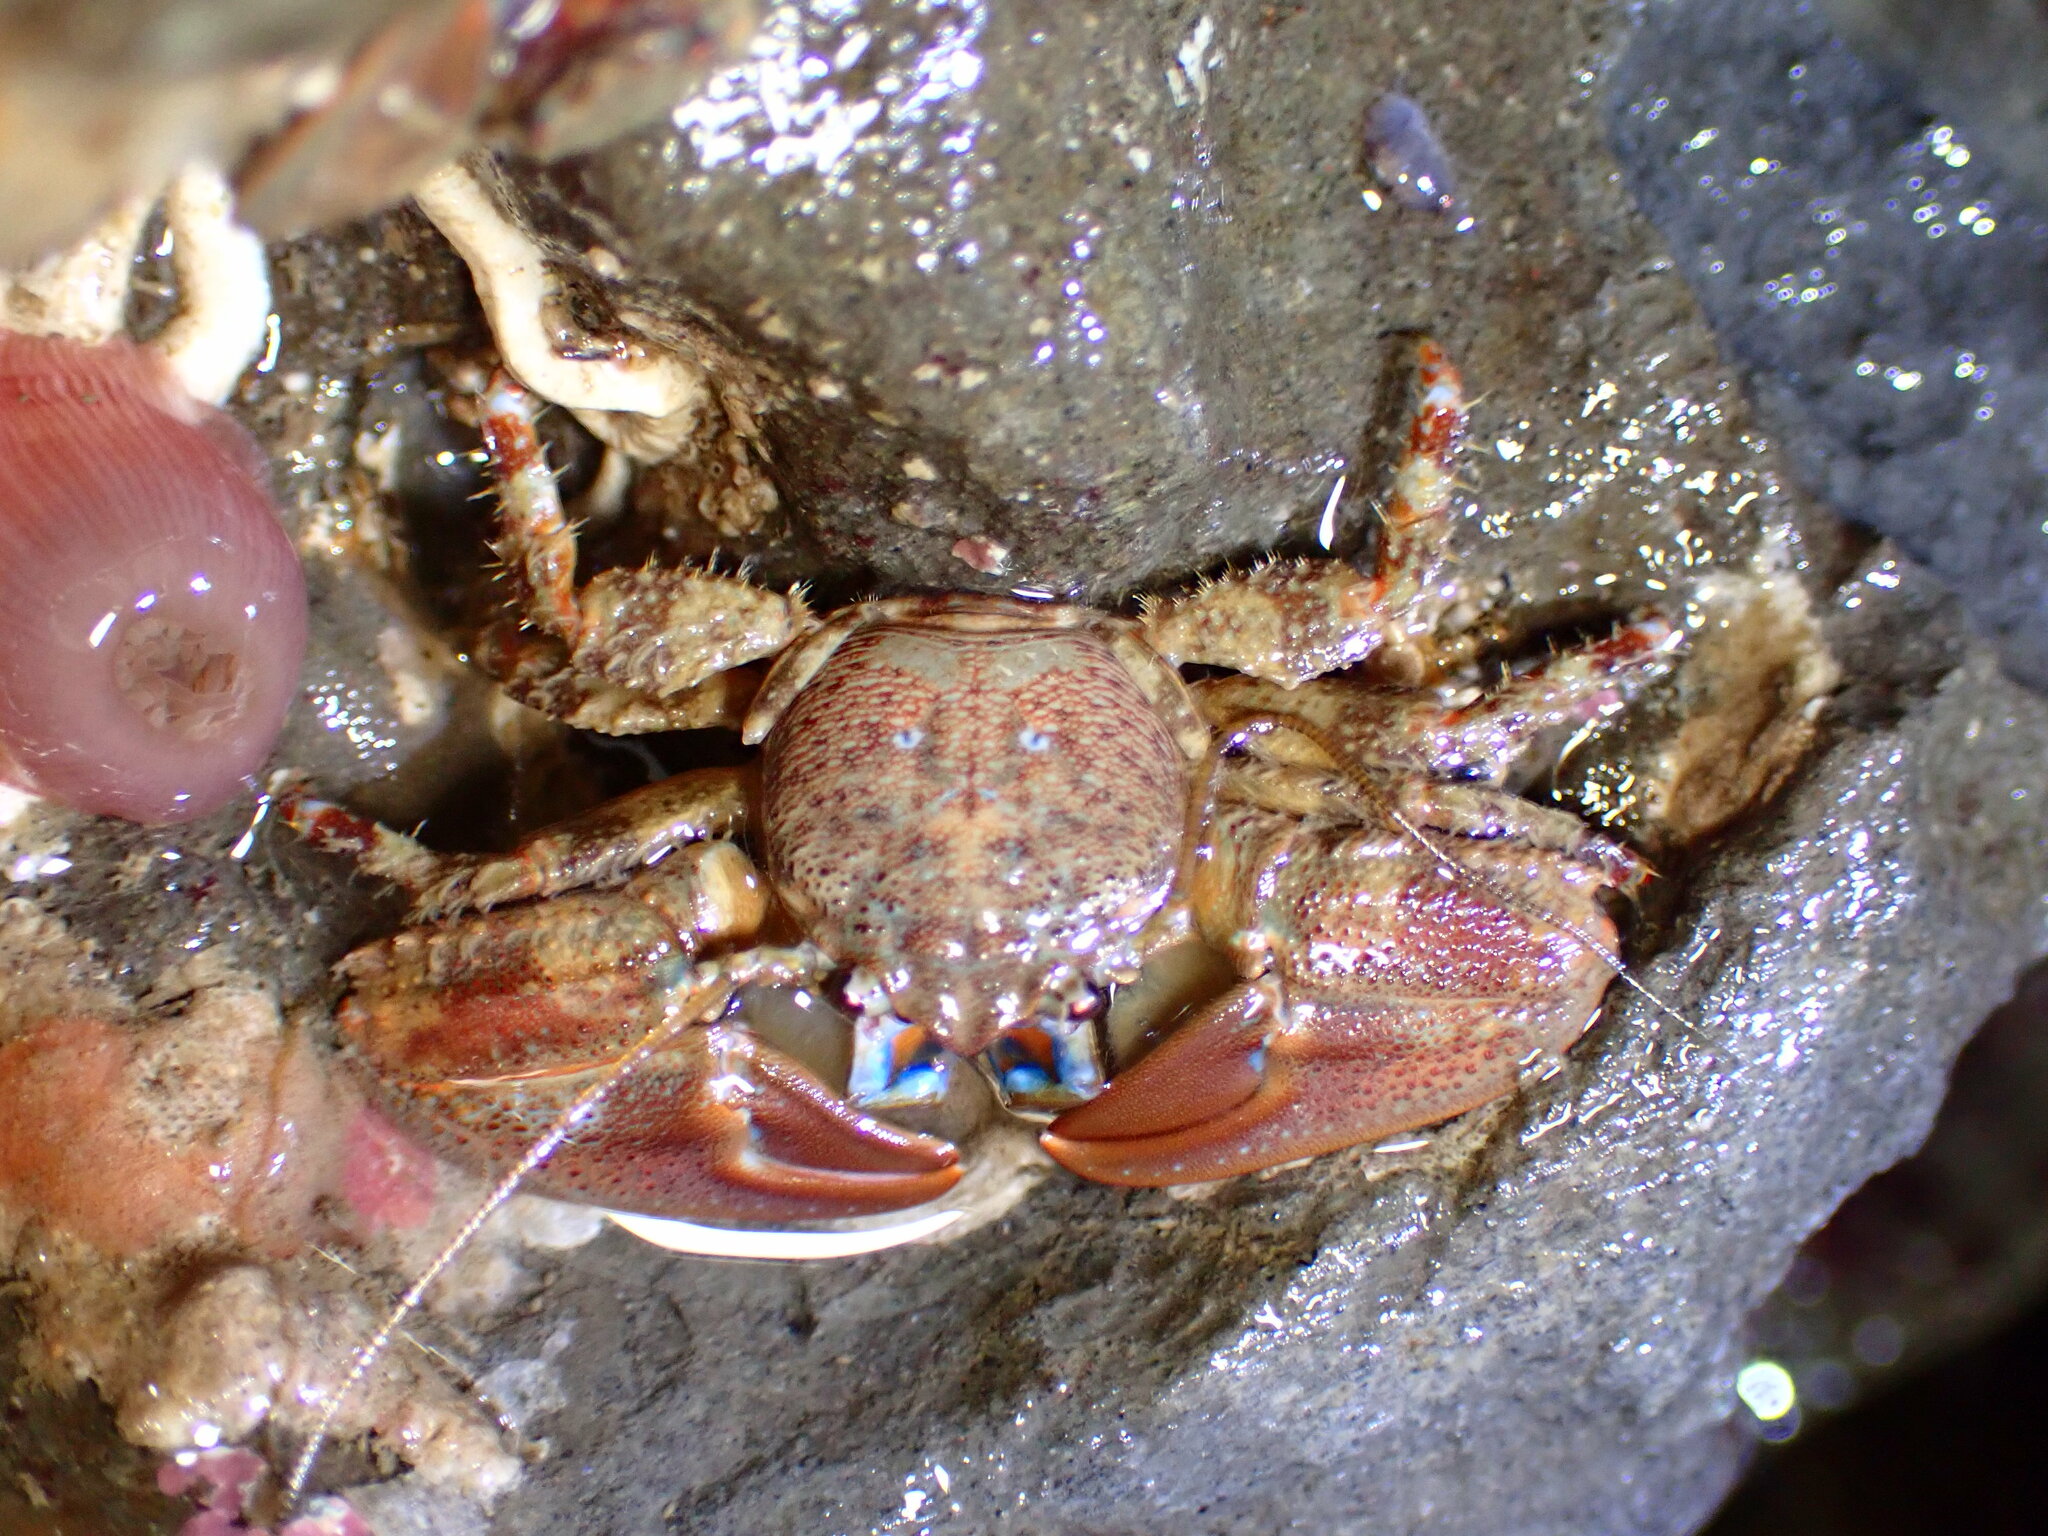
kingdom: Animalia
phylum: Arthropoda
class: Malacostraca
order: Decapoda
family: Porcellanidae
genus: Petrolisthes
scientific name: Petrolisthes eriomerus
